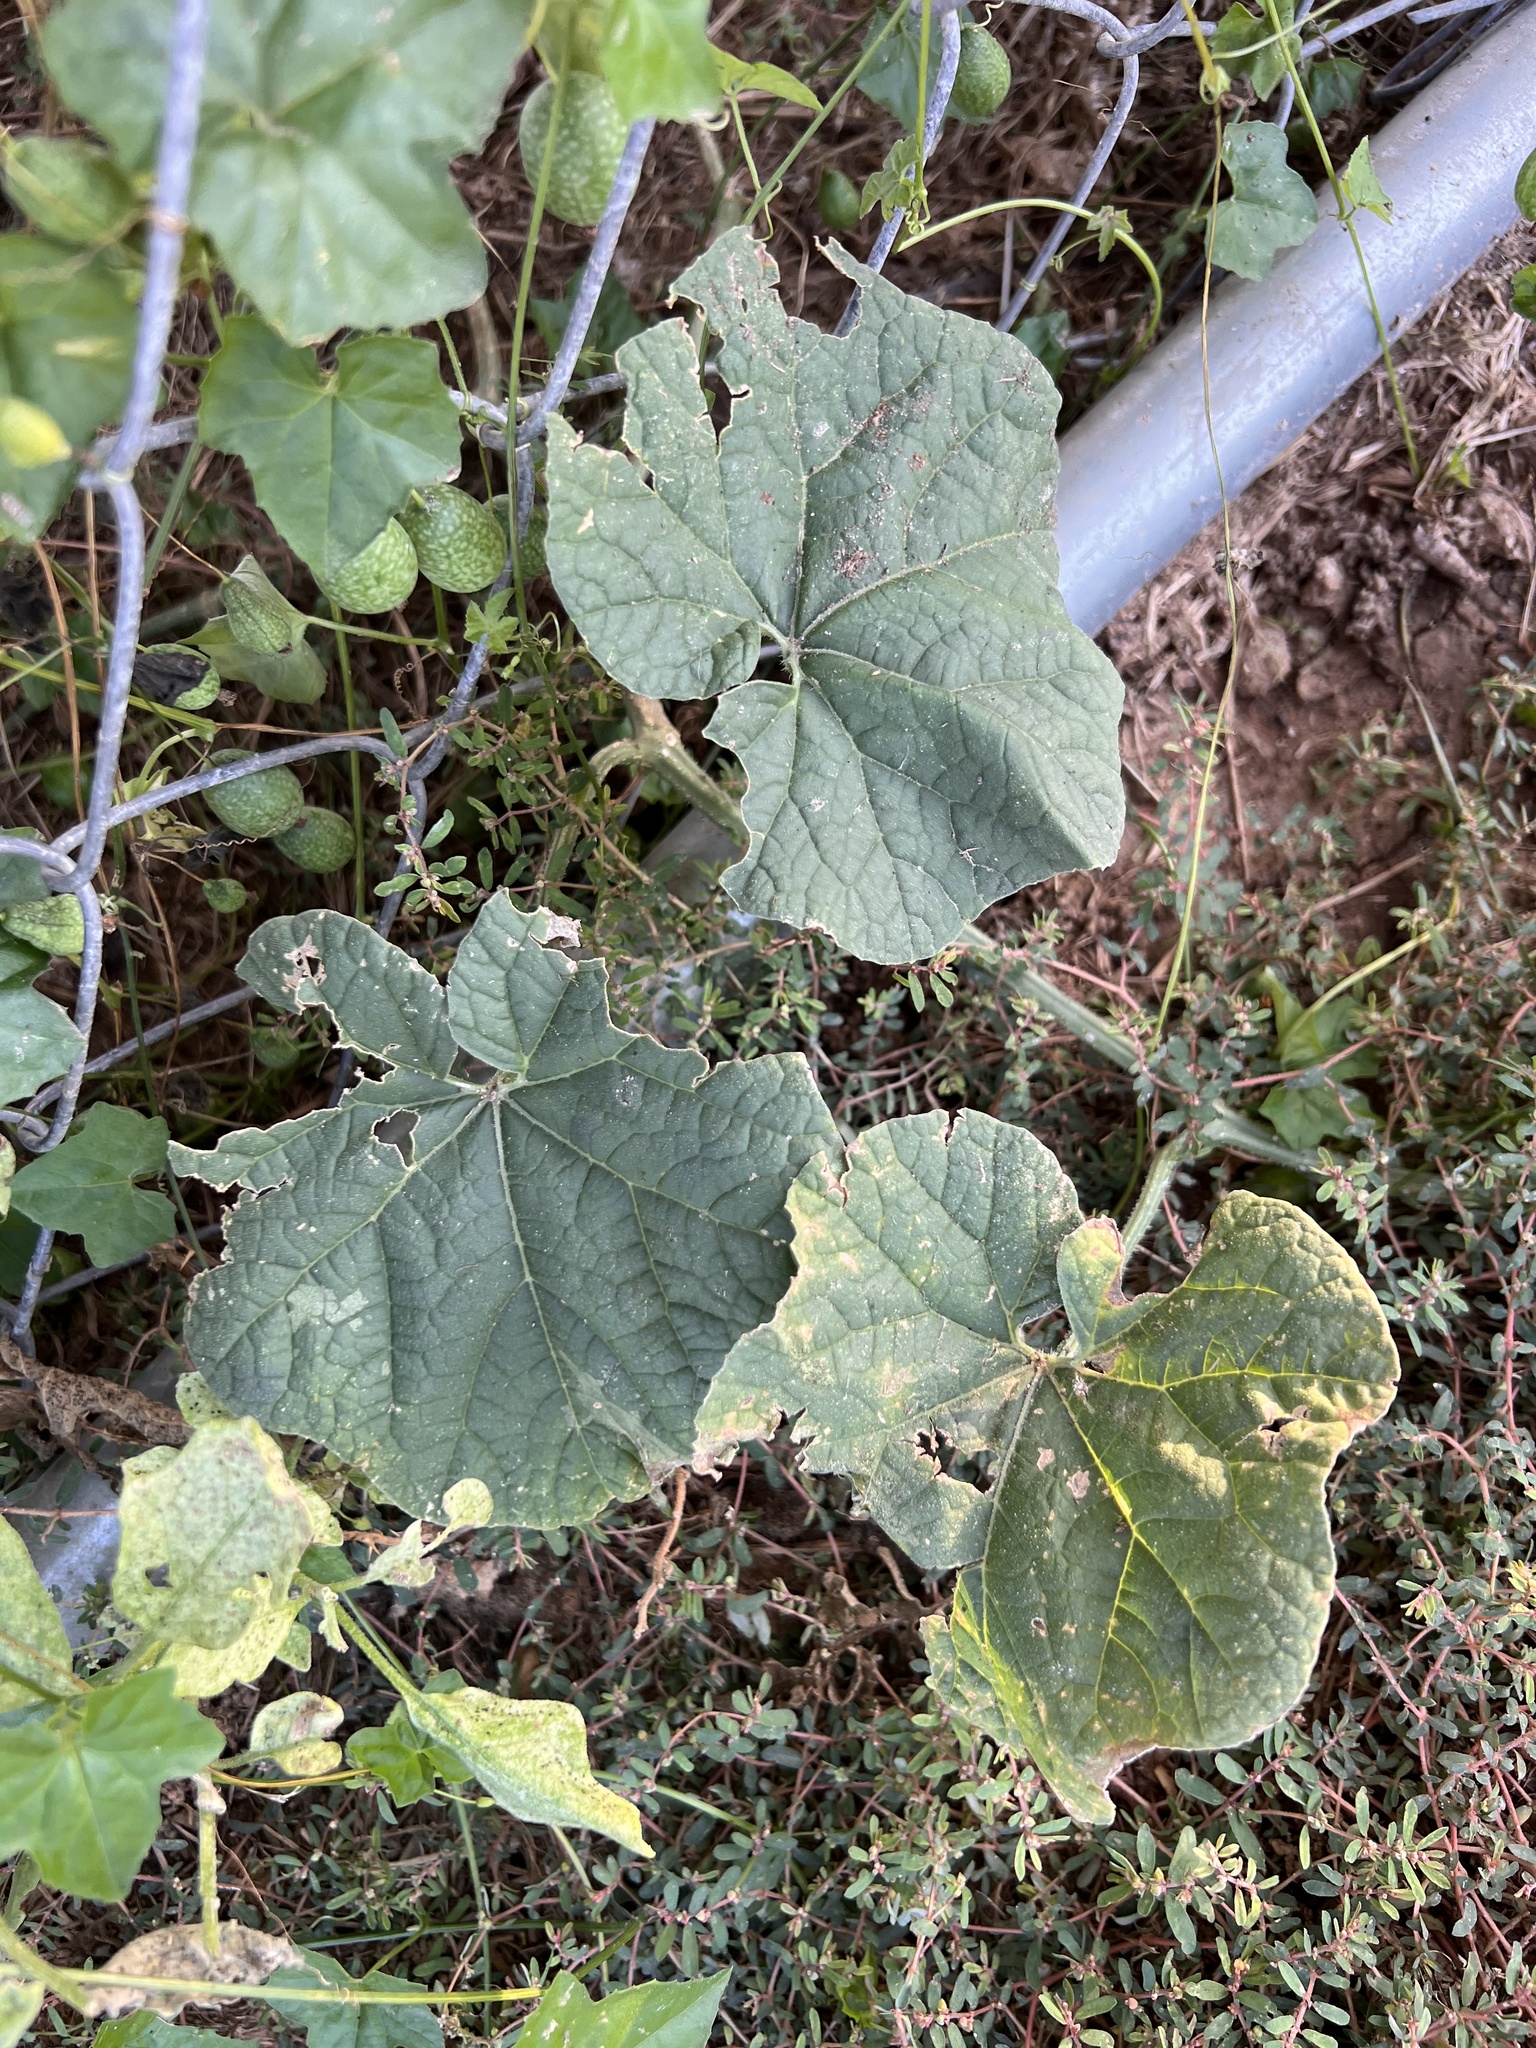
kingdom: Plantae
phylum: Tracheophyta
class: Magnoliopsida
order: Cucurbitales
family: Cucurbitaceae
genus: Cucumis
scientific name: Cucumis melo
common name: Melon
